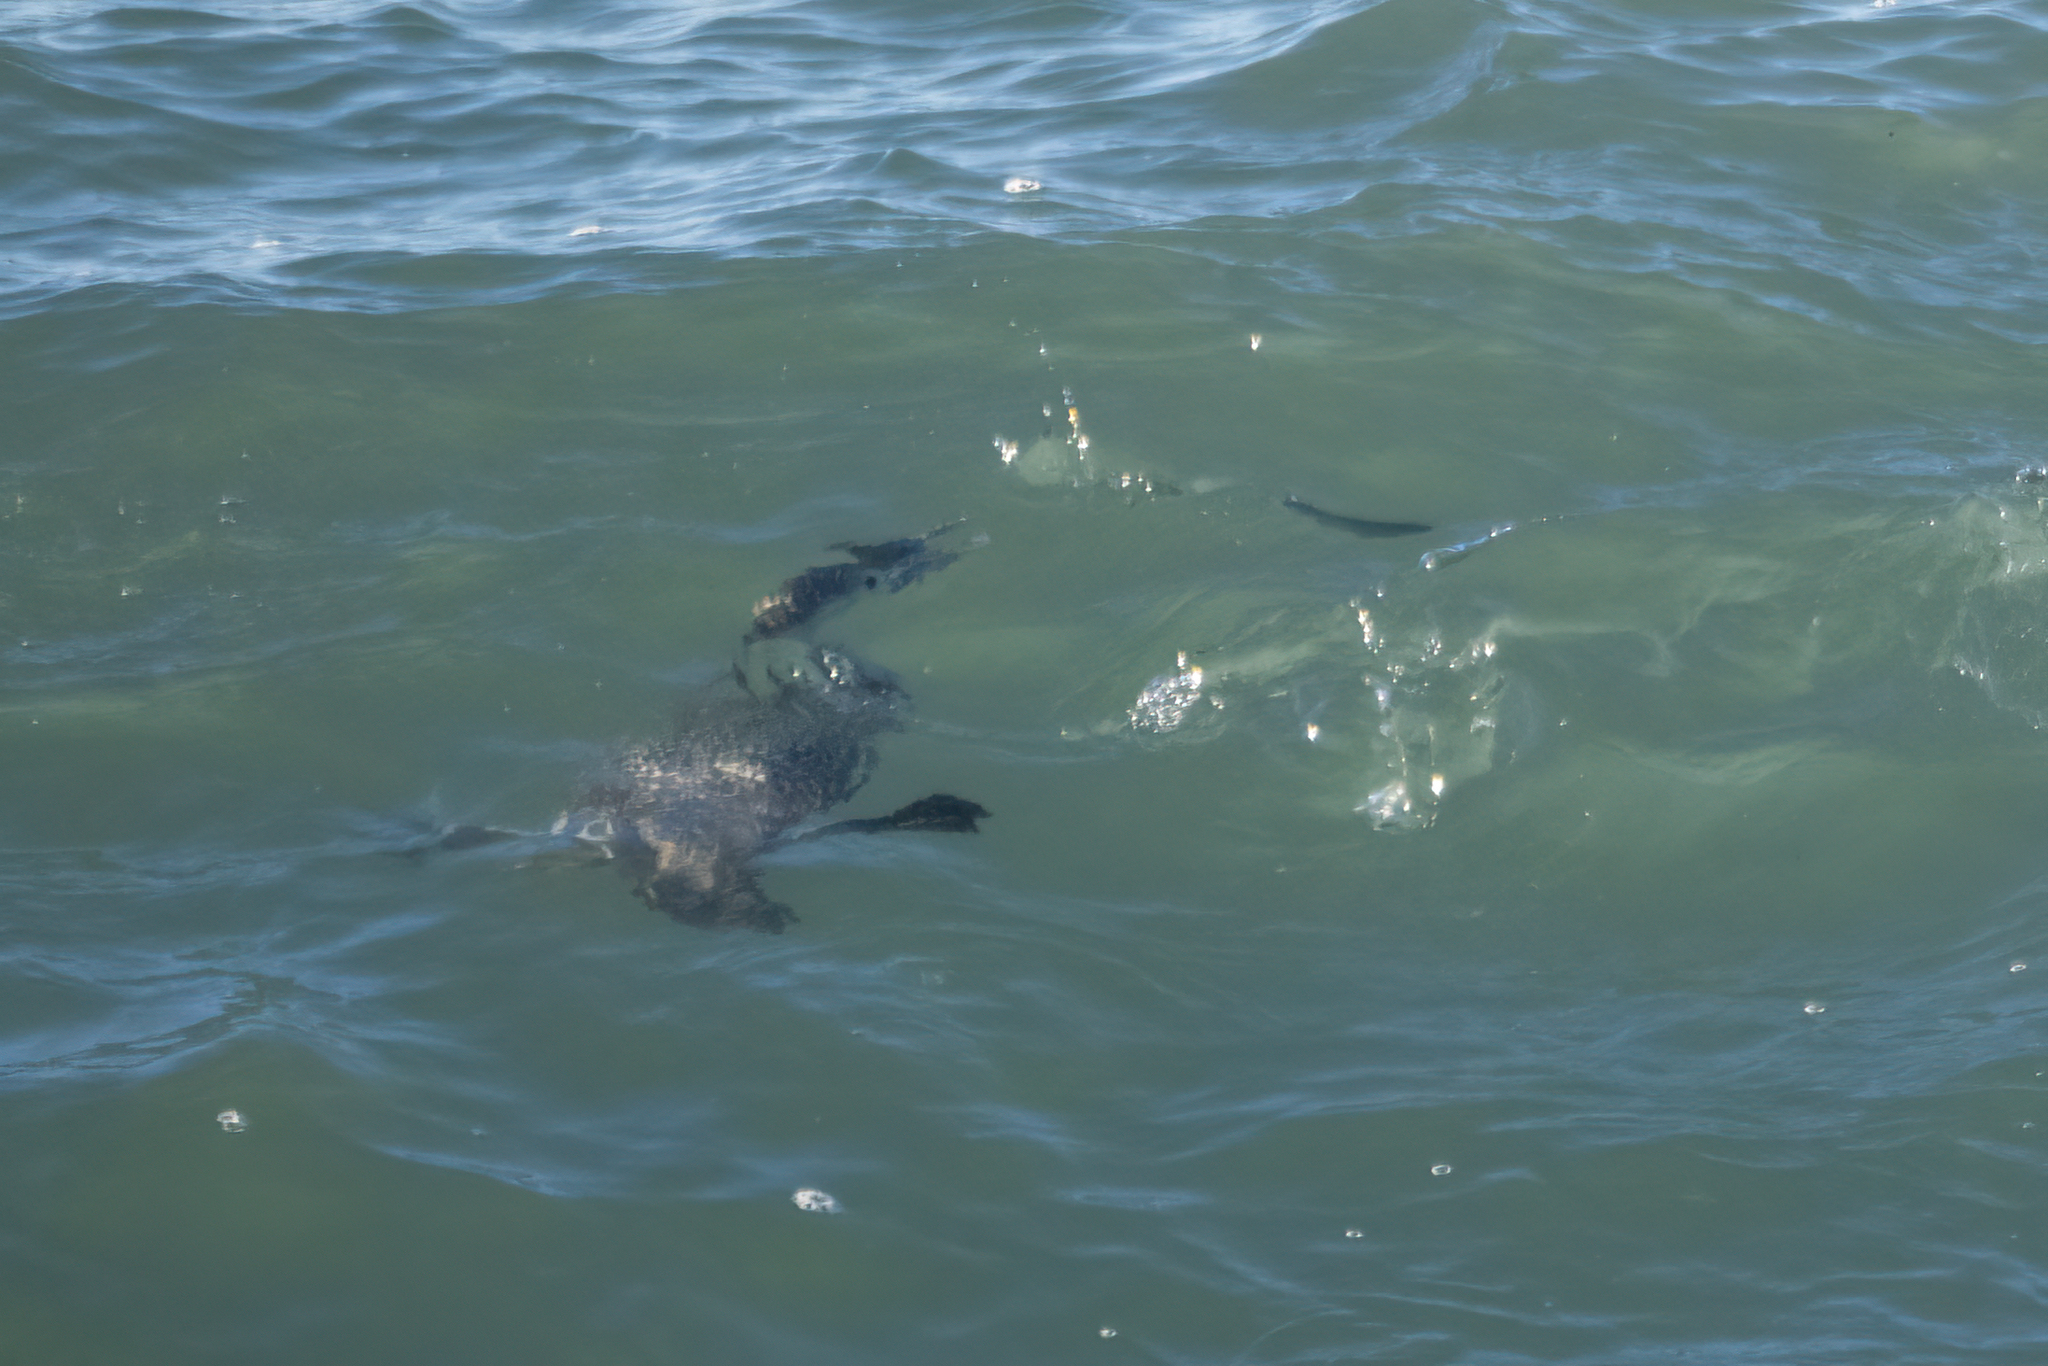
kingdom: Animalia
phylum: Chordata
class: Aves
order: Gaviiformes
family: Gaviidae
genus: Gavia
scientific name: Gavia stellata
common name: Red-throated loon
